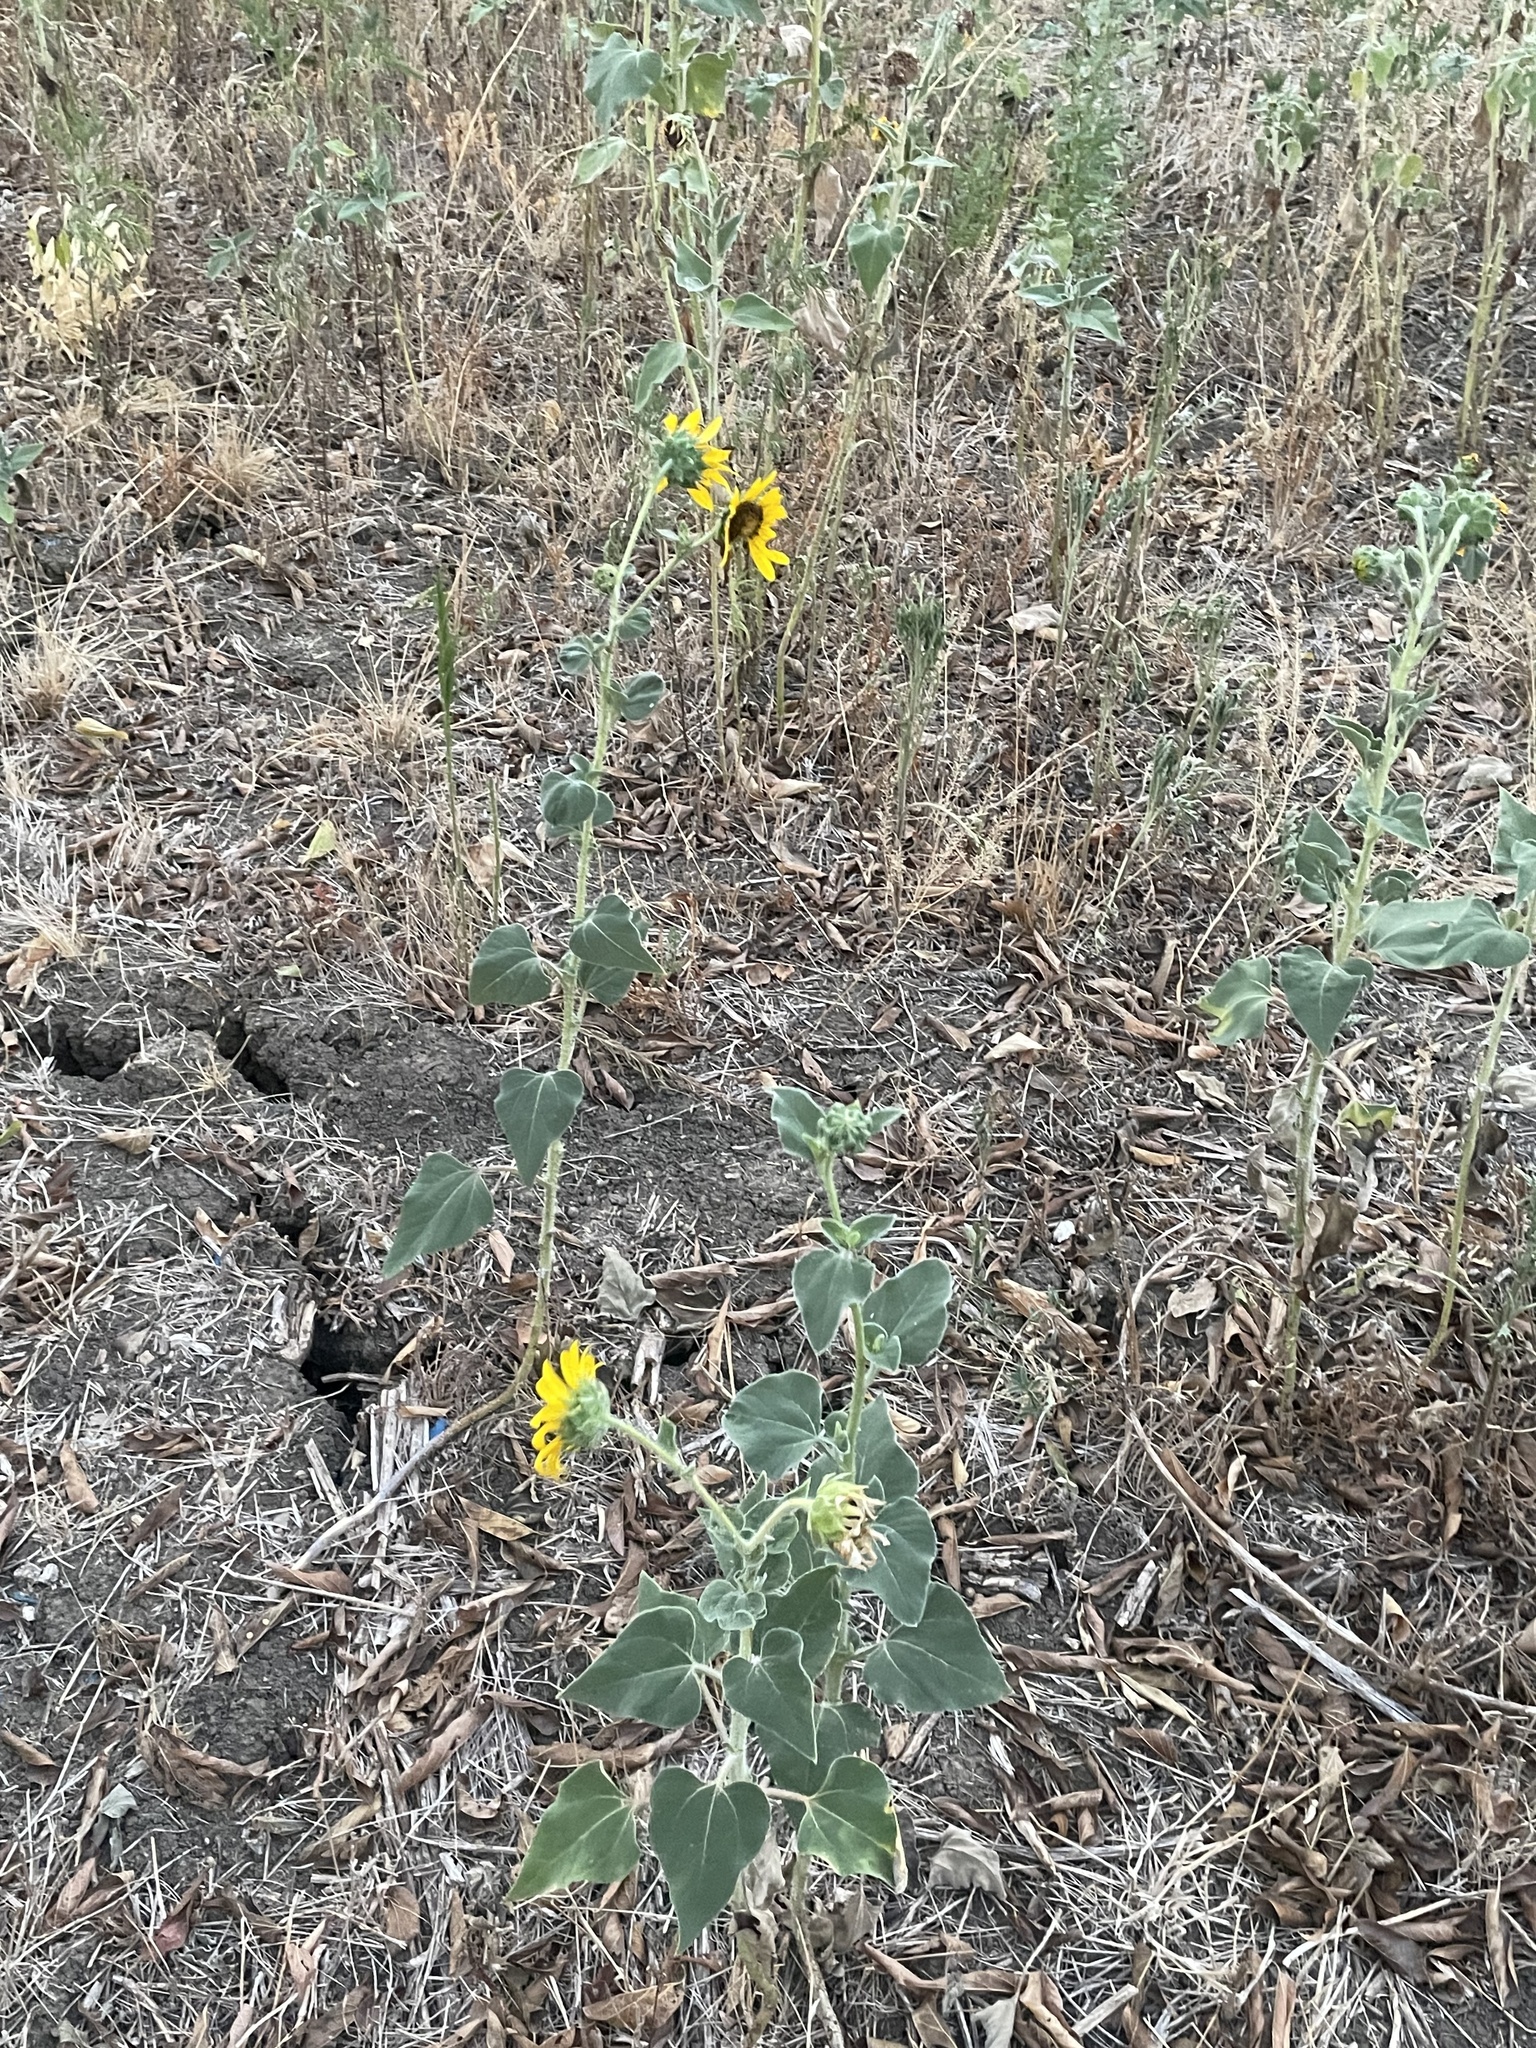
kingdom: Plantae
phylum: Tracheophyta
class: Magnoliopsida
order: Asterales
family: Asteraceae
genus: Helianthus
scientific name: Helianthus annuus
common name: Sunflower
